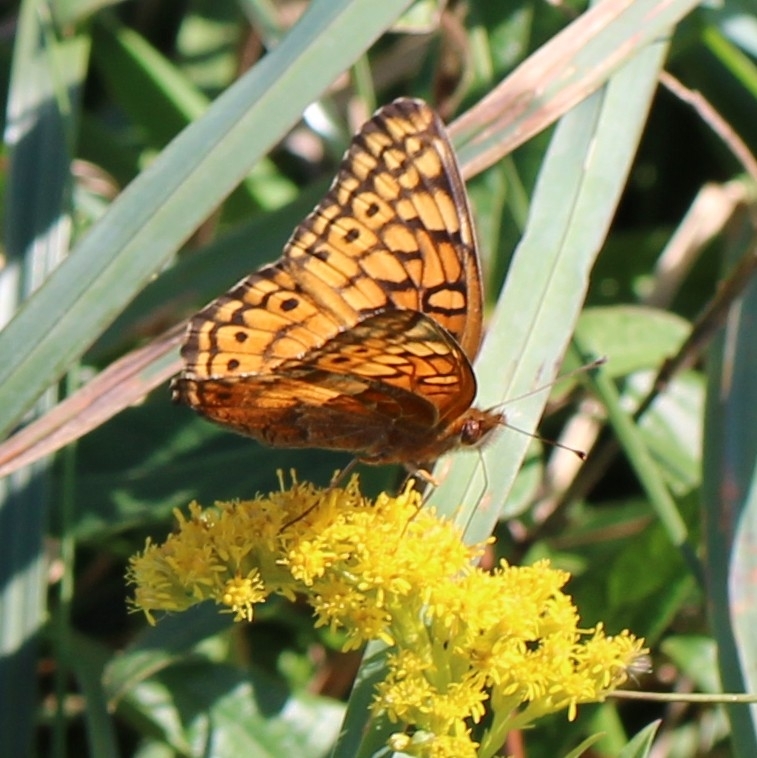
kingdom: Animalia
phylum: Arthropoda
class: Insecta
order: Lepidoptera
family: Nymphalidae
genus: Euptoieta
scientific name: Euptoieta claudia
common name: Variegated fritillary
